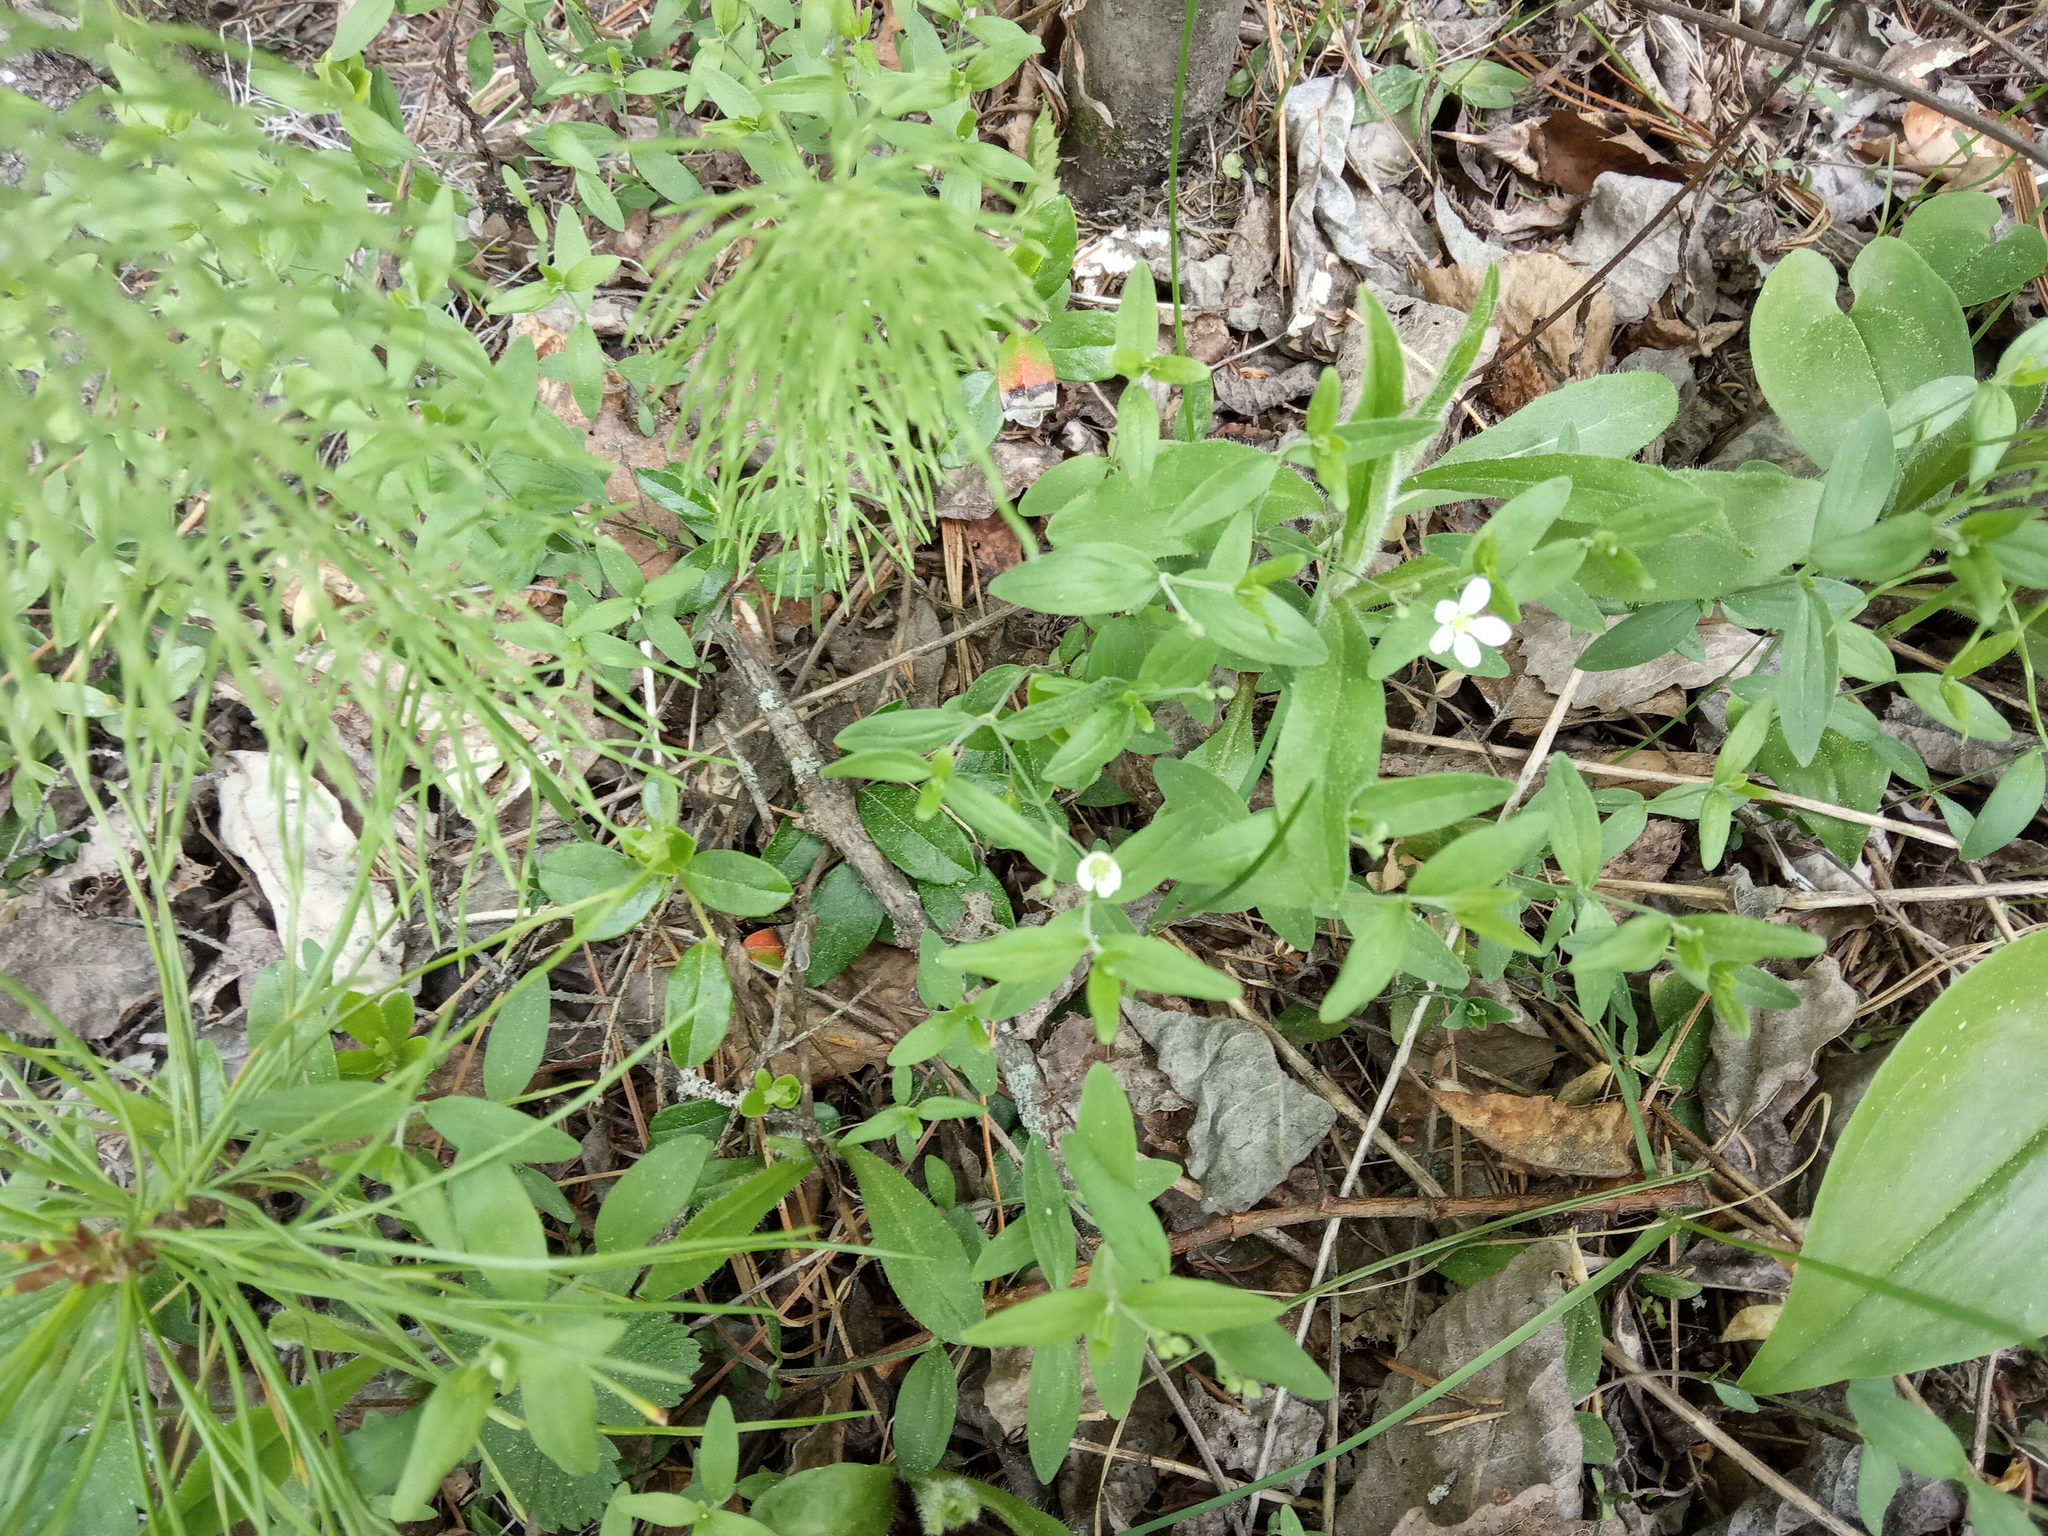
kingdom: Plantae
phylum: Tracheophyta
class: Magnoliopsida
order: Caryophyllales
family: Caryophyllaceae
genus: Moehringia
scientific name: Moehringia lateriflora
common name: Blunt-leaved sandwort
